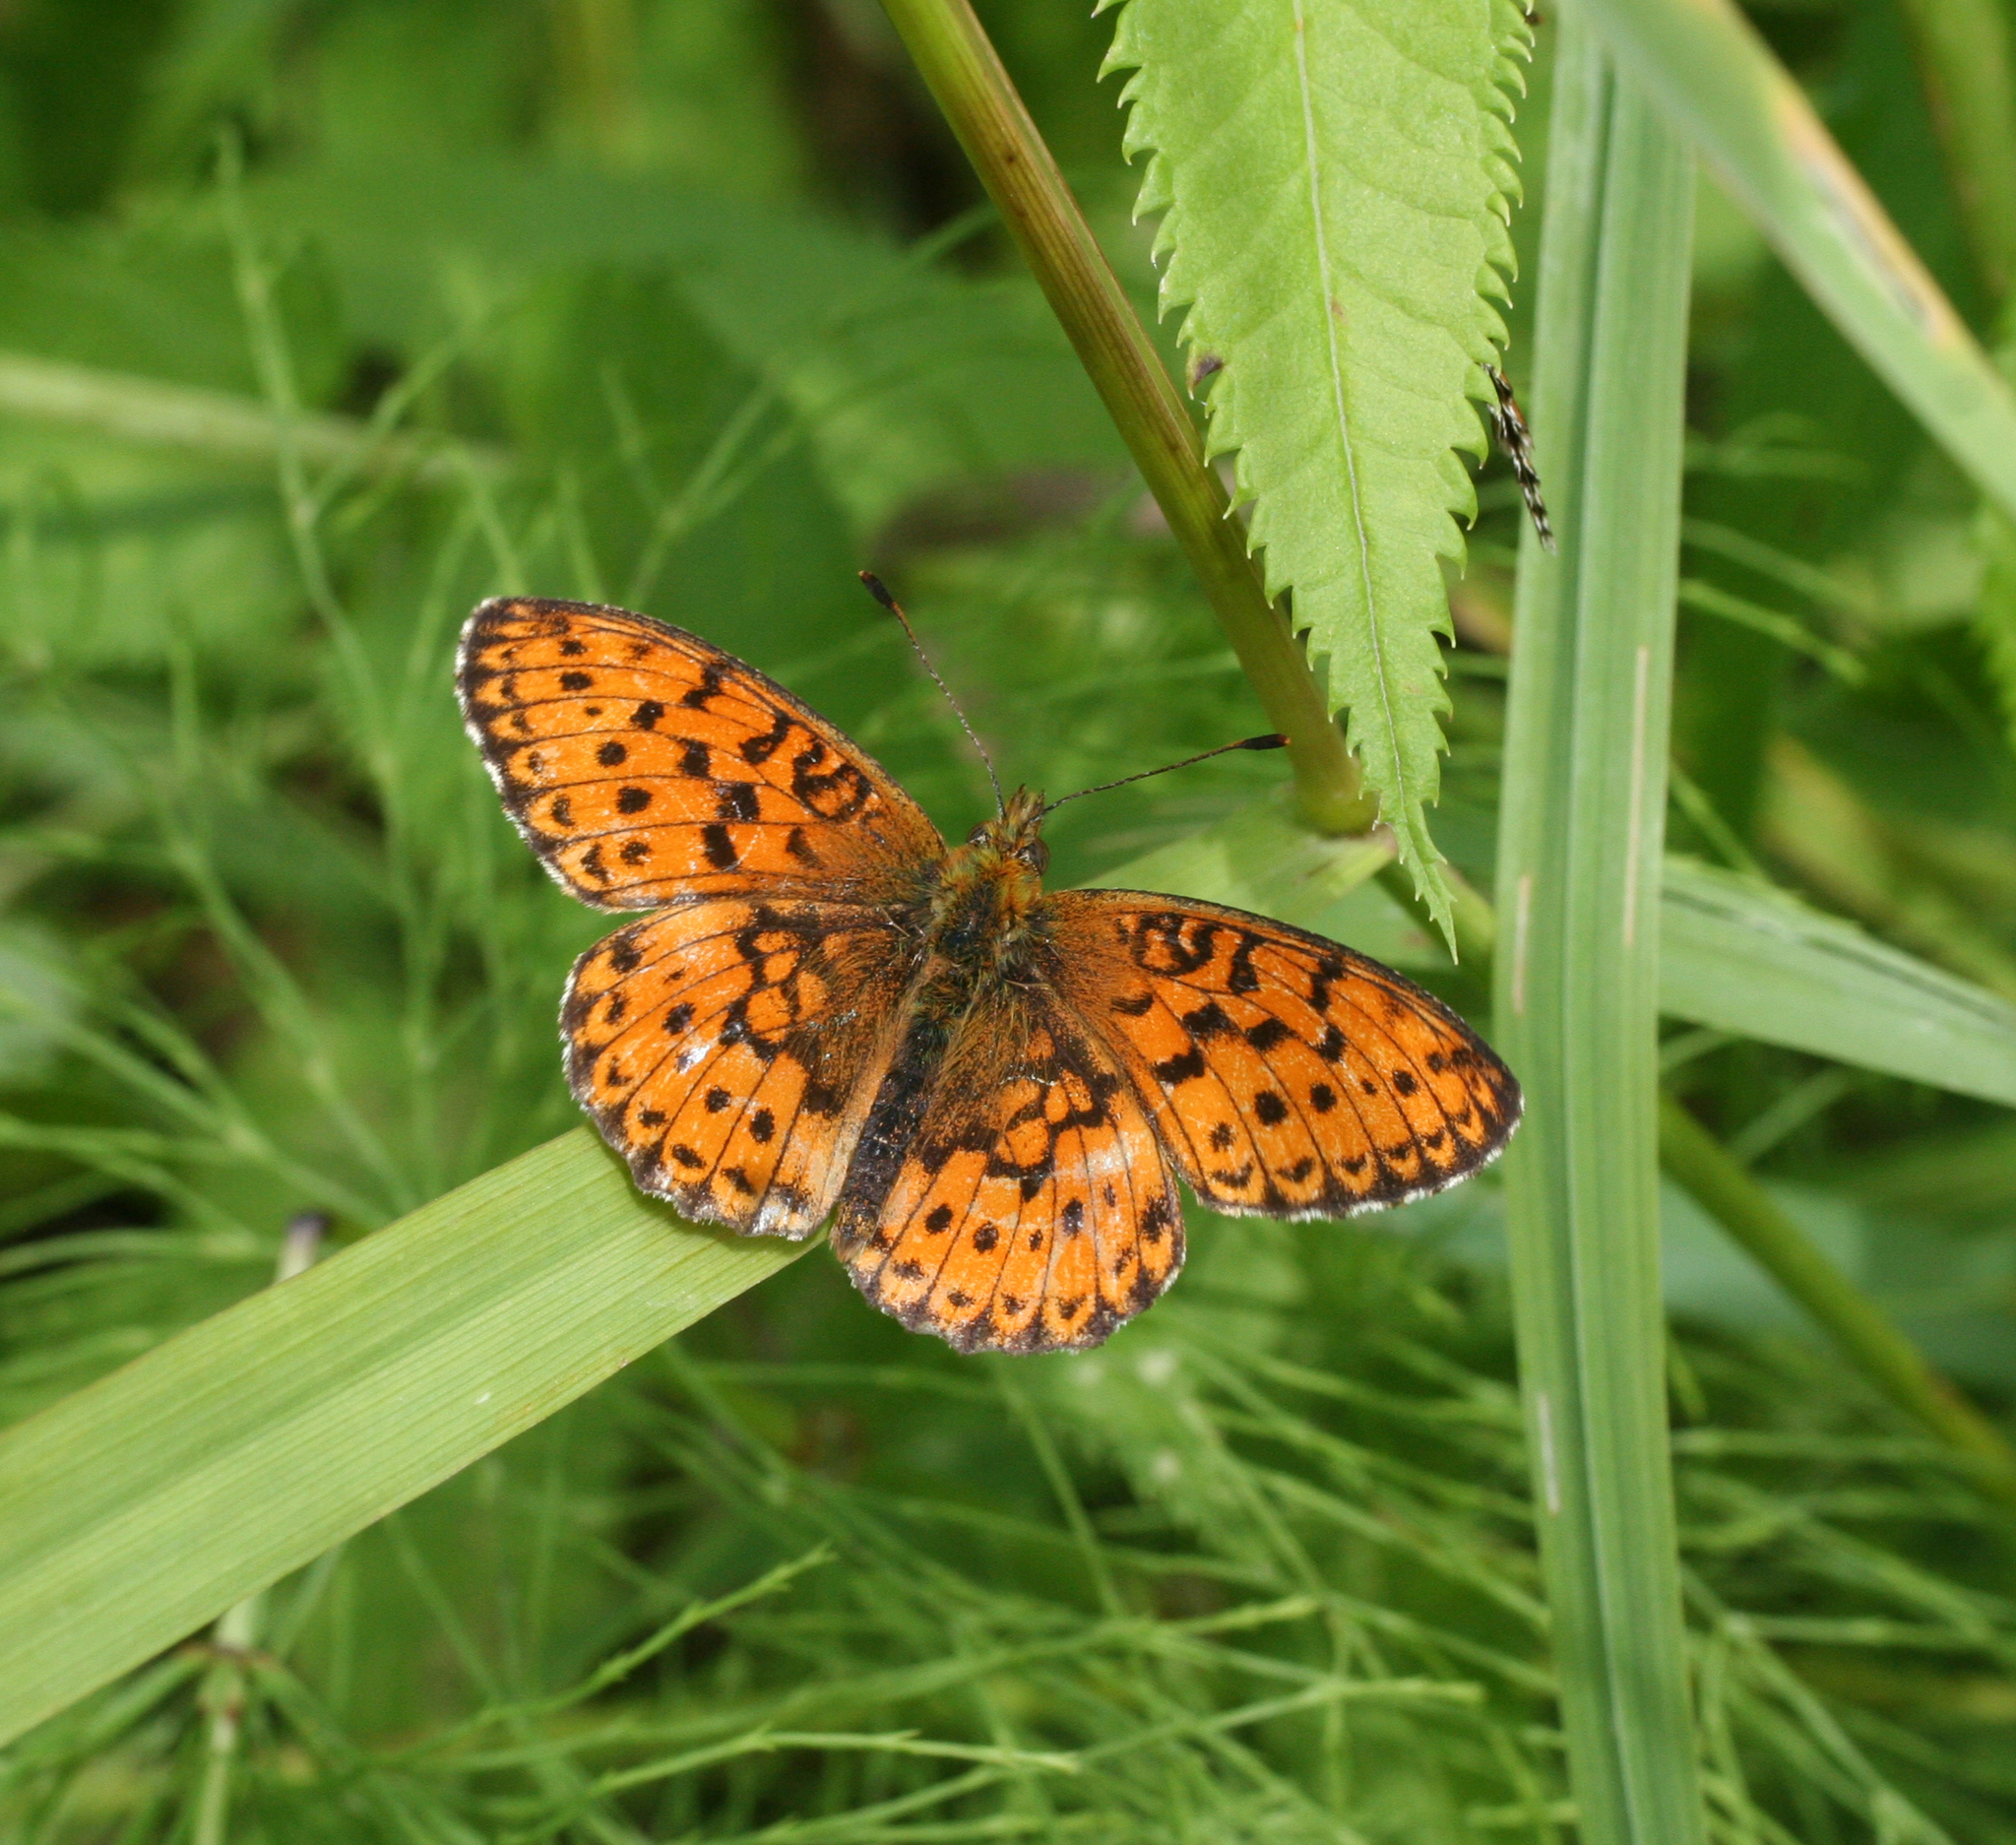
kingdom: Animalia
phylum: Arthropoda
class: Insecta
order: Lepidoptera
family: Nymphalidae
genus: Brenthis
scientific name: Brenthis ino
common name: Lesser marbled fritillary
